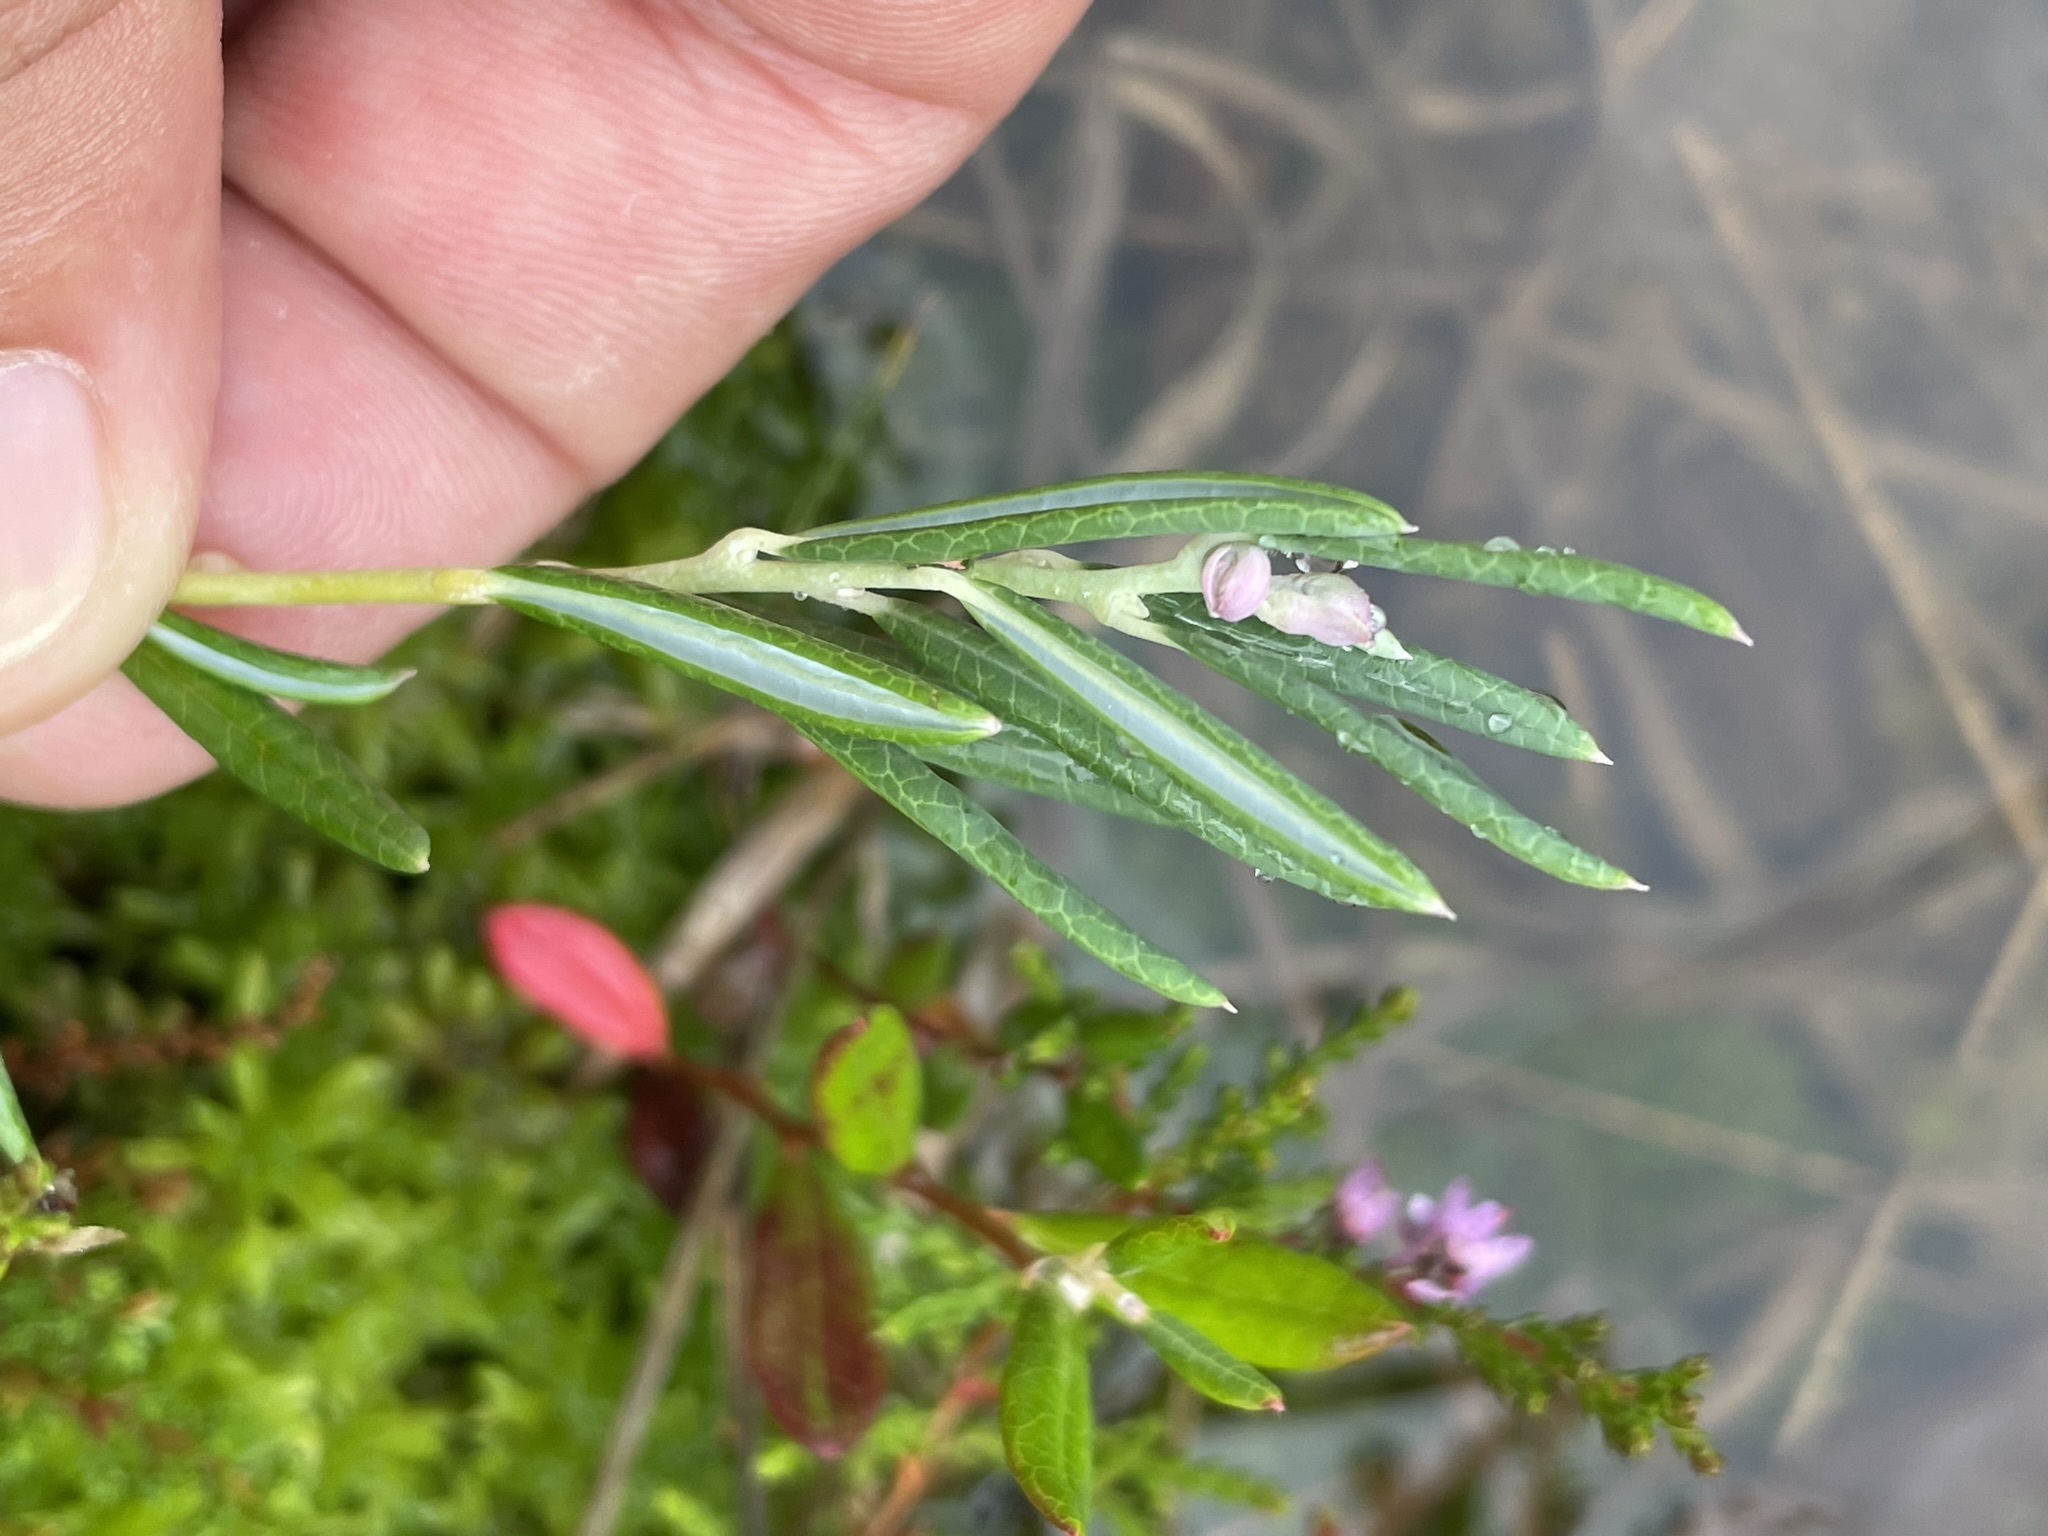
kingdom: Plantae
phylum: Tracheophyta
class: Magnoliopsida
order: Ericales
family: Ericaceae
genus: Andromeda
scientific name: Andromeda polifolia
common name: Bog-rosemary
